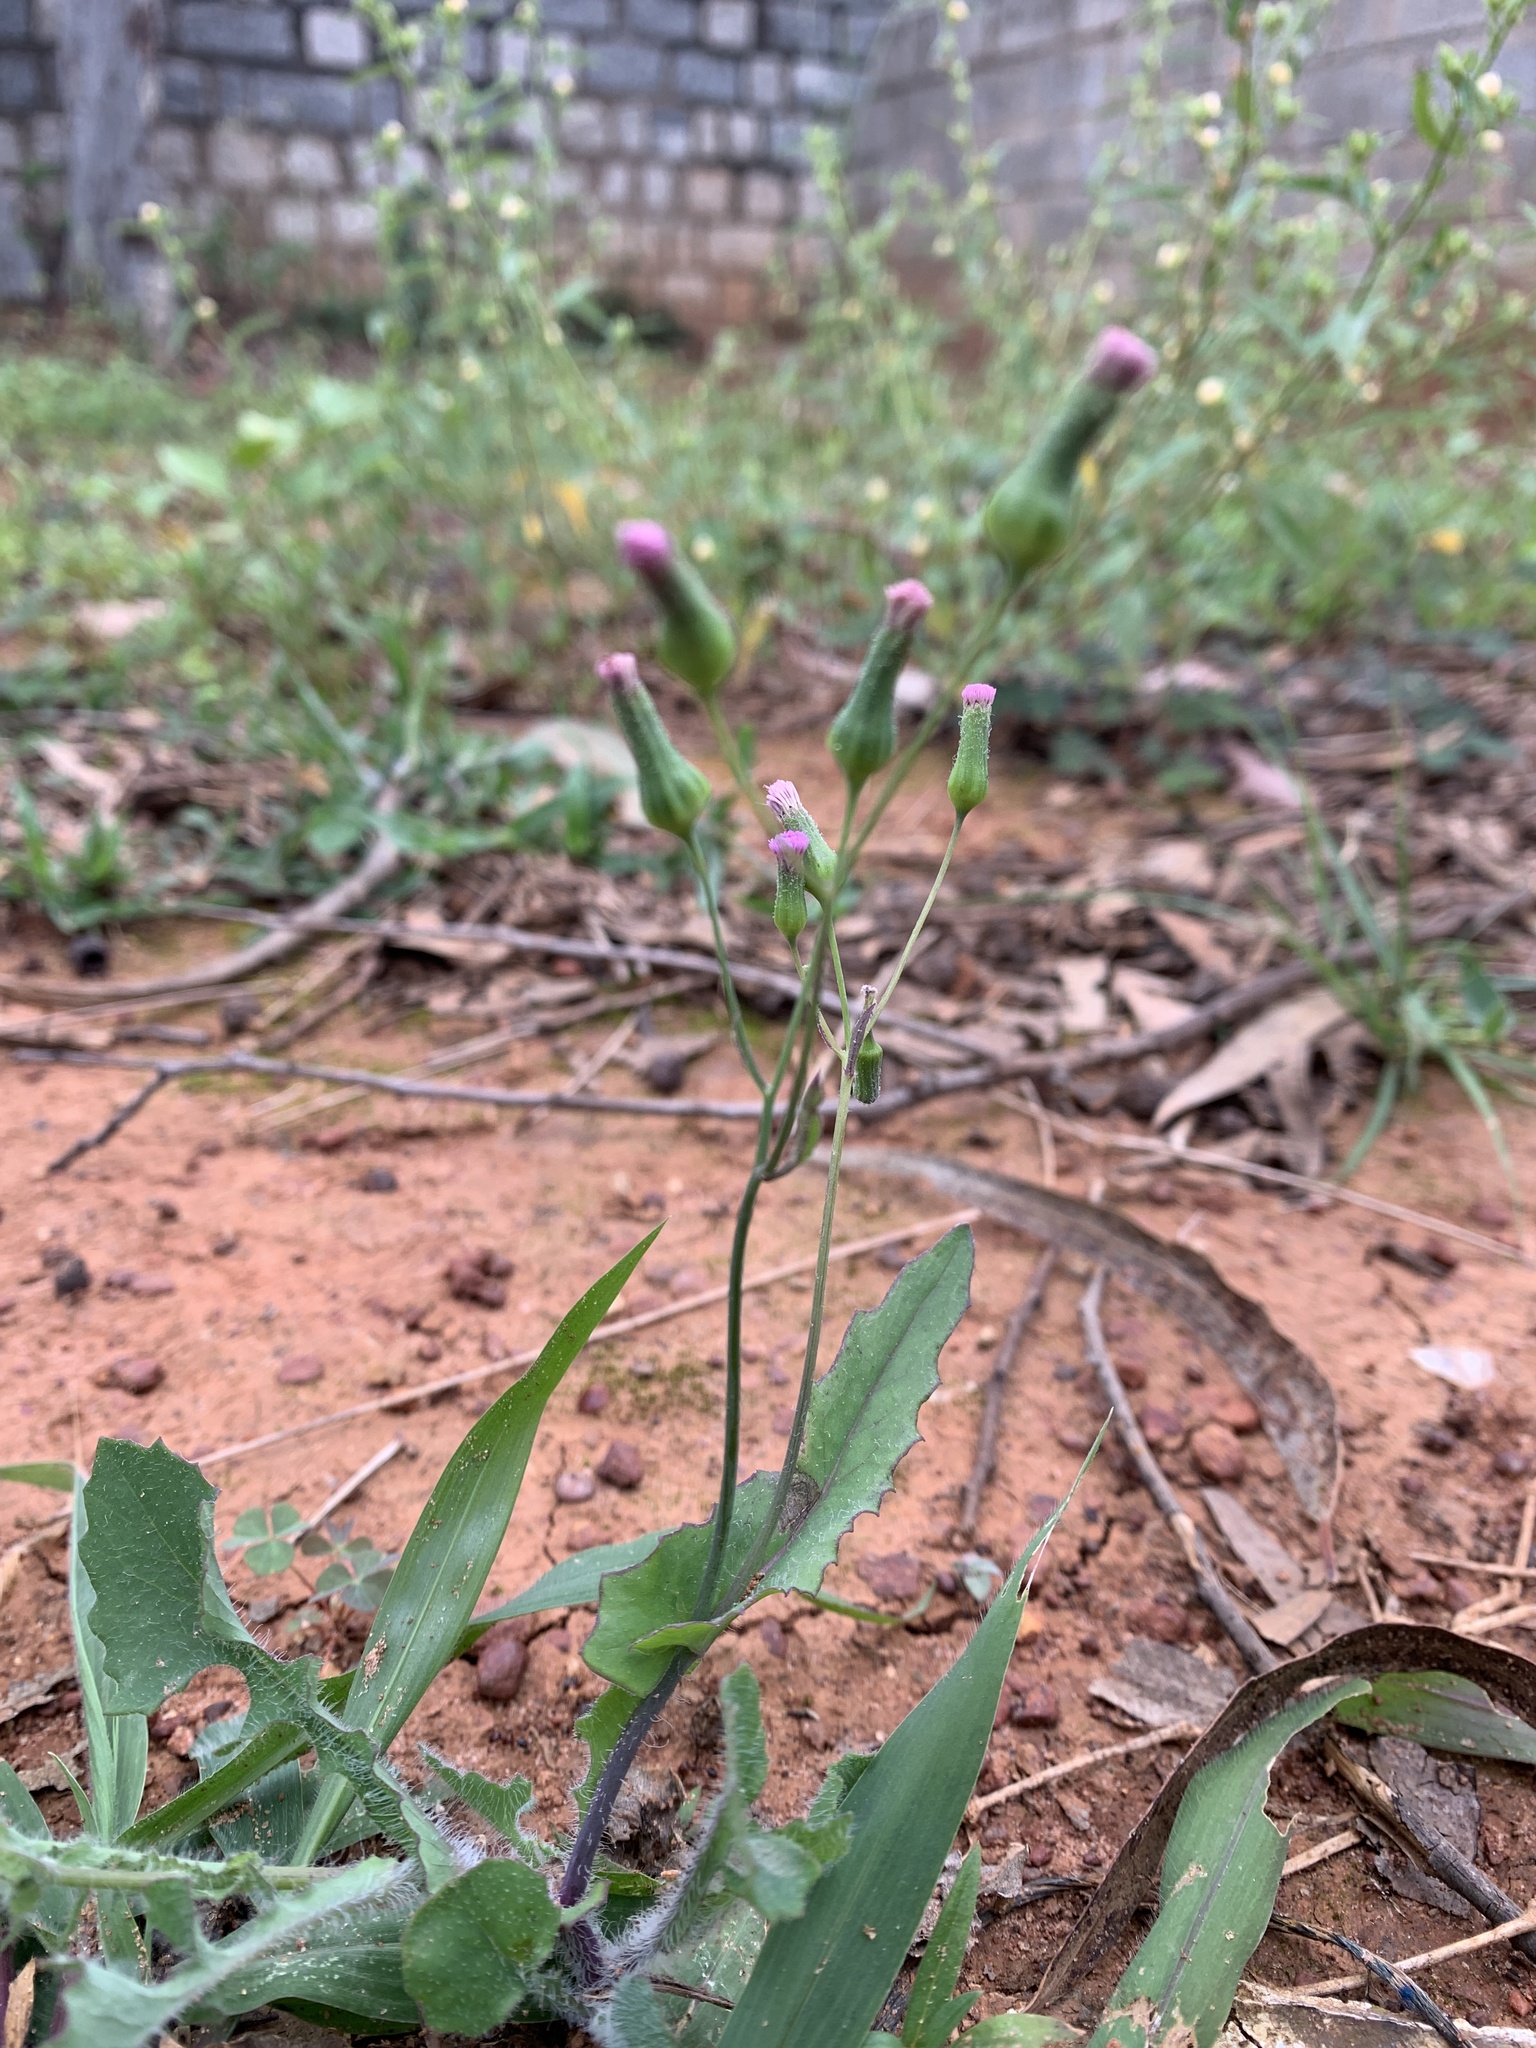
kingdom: Plantae
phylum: Tracheophyta
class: Magnoliopsida
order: Asterales
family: Asteraceae
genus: Emilia
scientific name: Emilia sonchifolia
